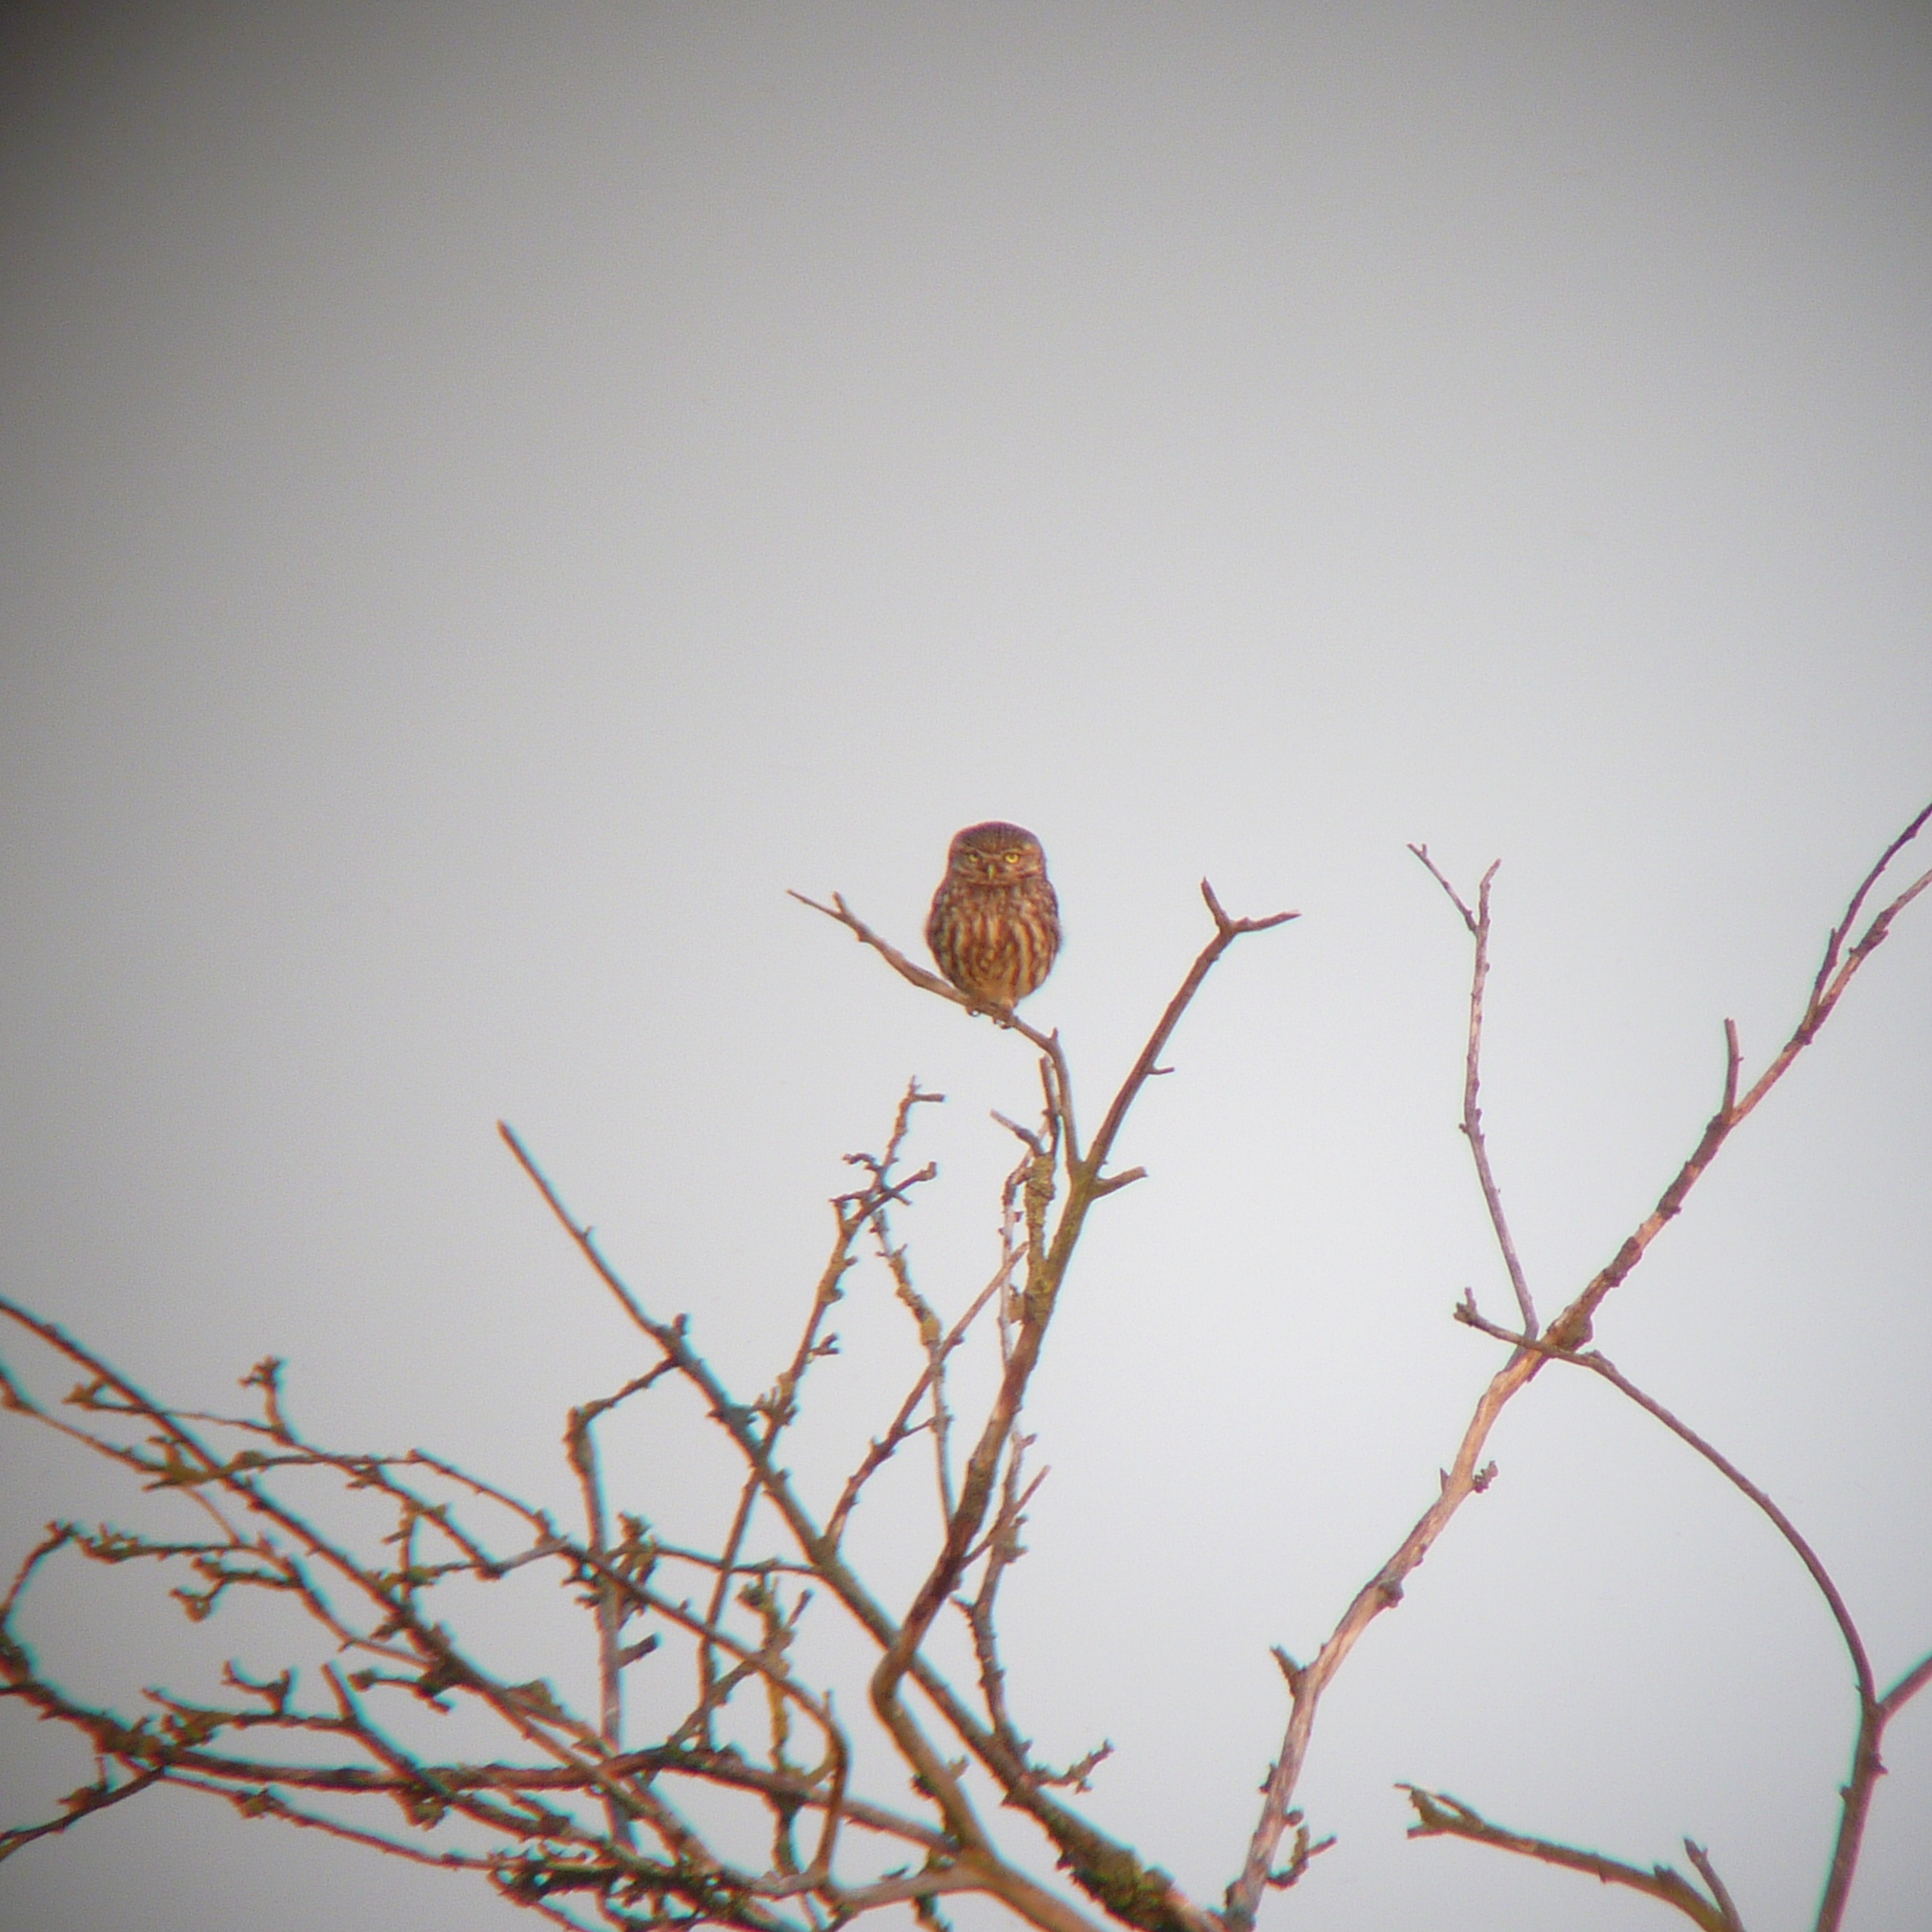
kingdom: Animalia
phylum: Chordata
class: Aves
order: Strigiformes
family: Strigidae
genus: Athene
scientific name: Athene noctua
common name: Little owl
